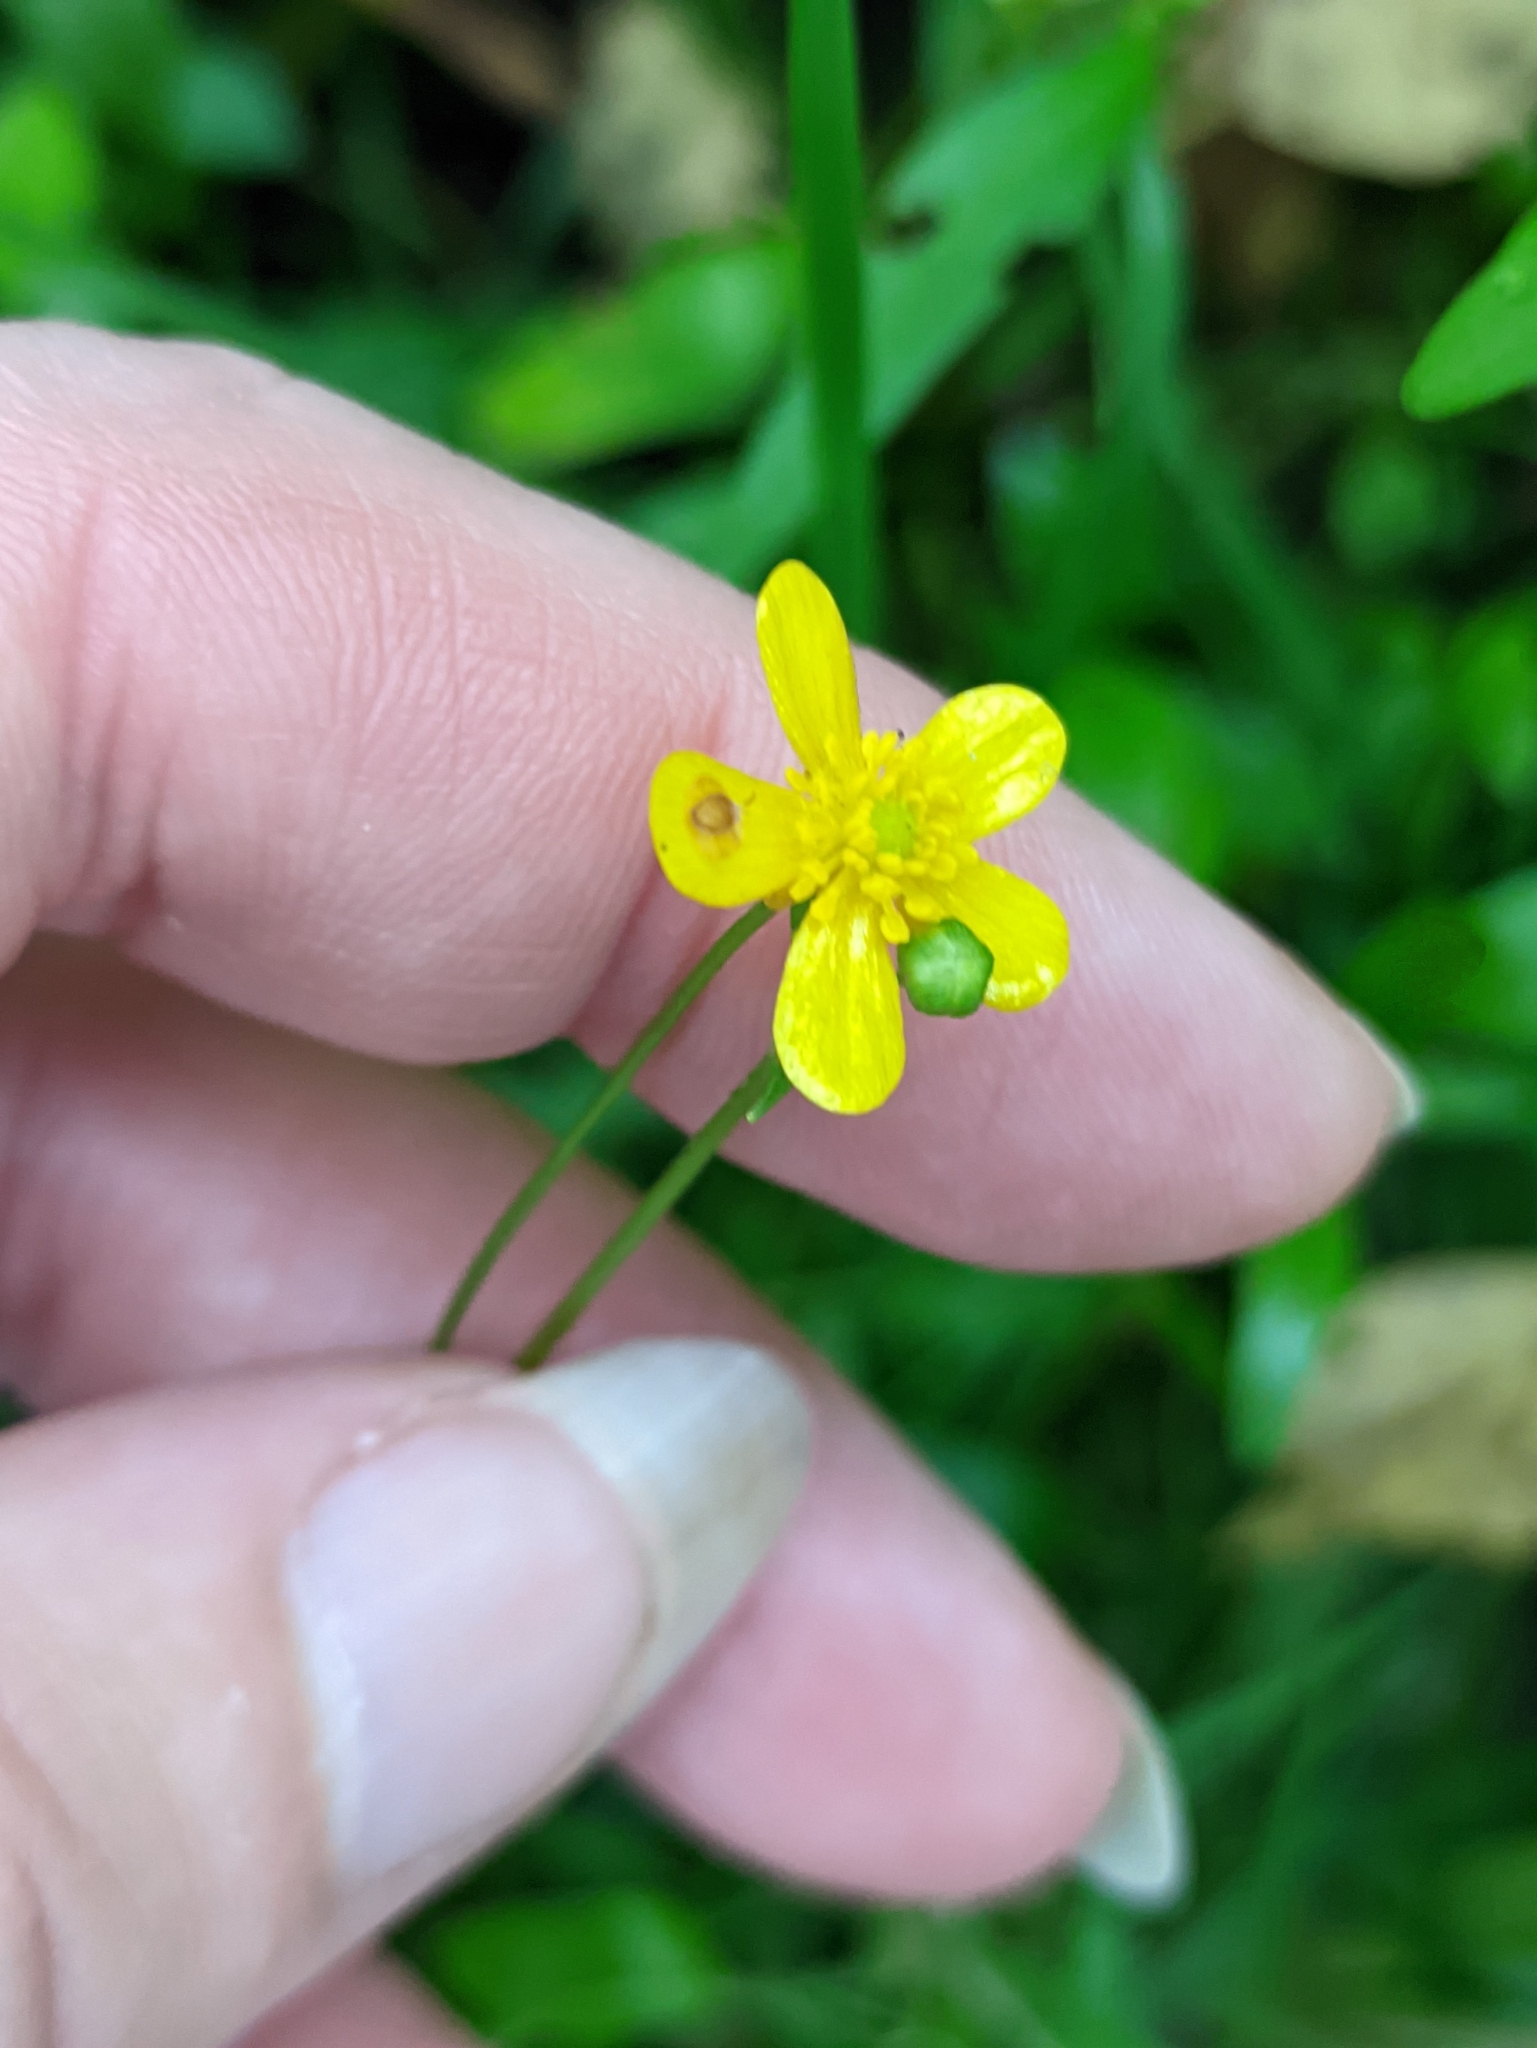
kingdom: Plantae
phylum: Tracheophyta
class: Magnoliopsida
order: Ranunculales
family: Ranunculaceae
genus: Ranunculus
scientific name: Ranunculus flammula
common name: Lesser spearwort
